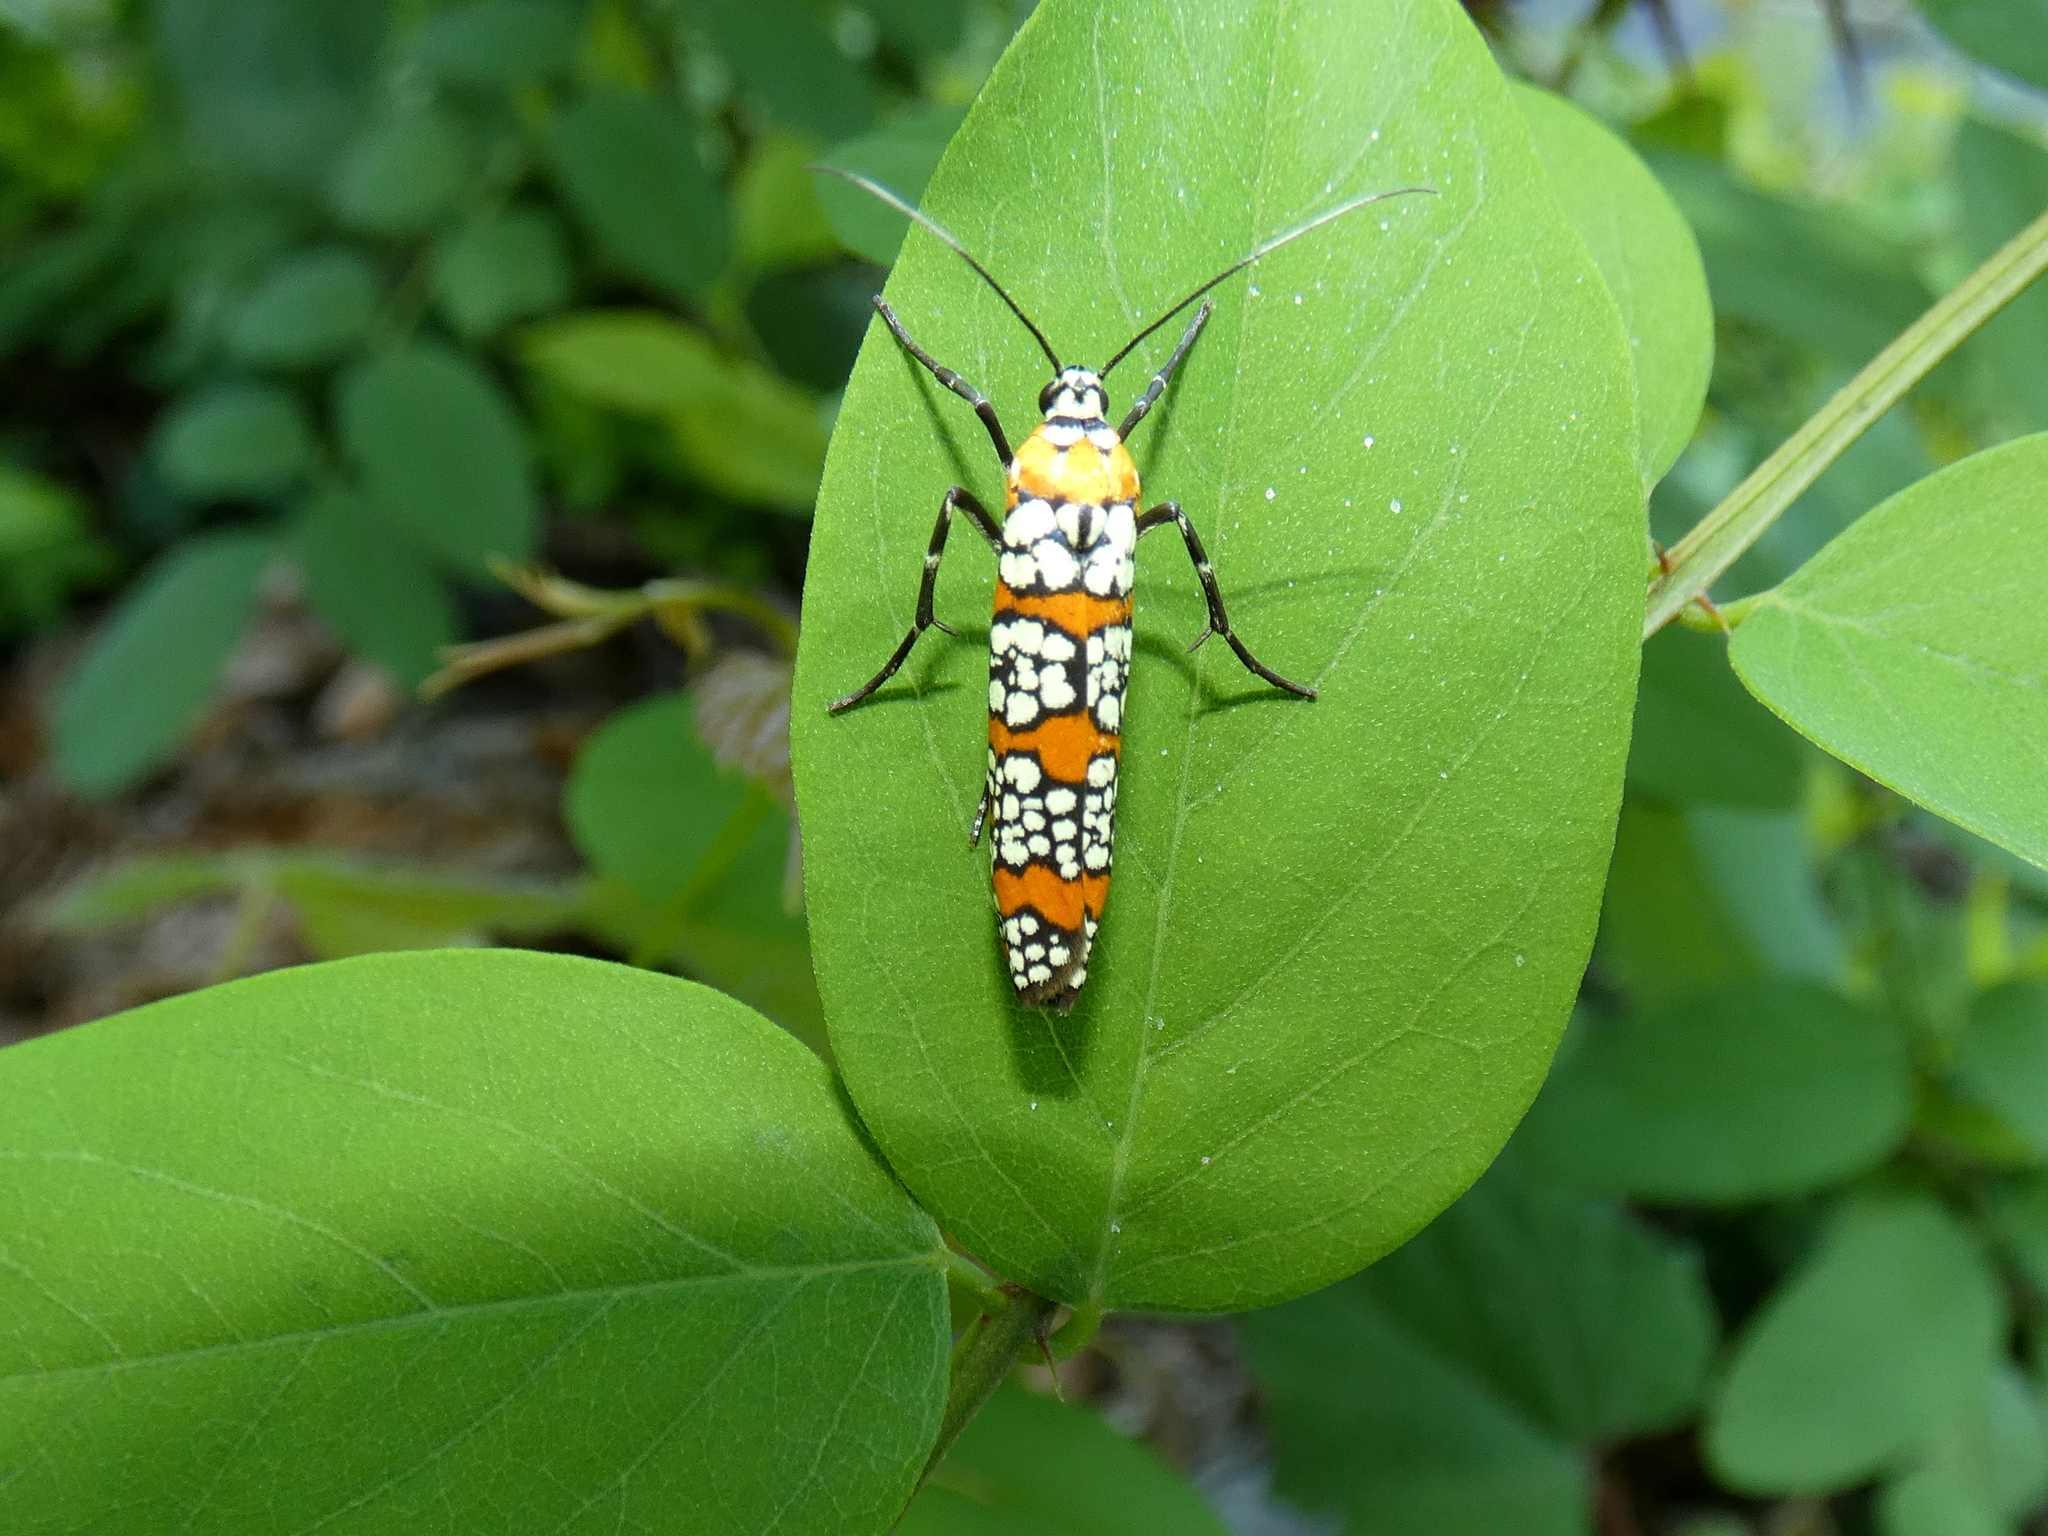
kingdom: Animalia
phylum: Arthropoda
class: Insecta
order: Lepidoptera
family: Attevidae
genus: Atteva
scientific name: Atteva punctella
